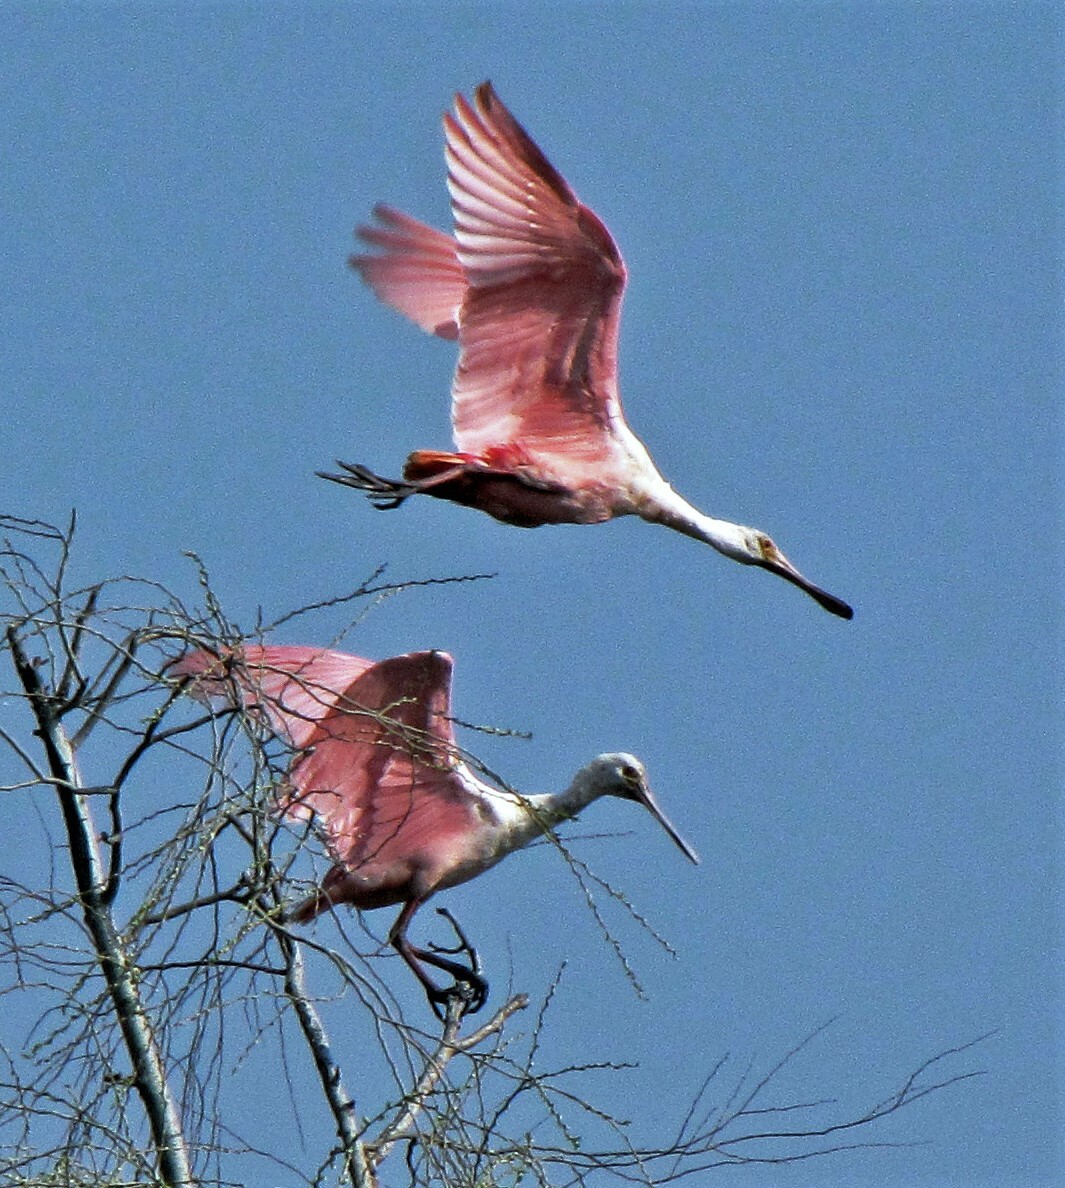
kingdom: Animalia
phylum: Chordata
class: Aves
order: Pelecaniformes
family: Threskiornithidae
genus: Platalea
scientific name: Platalea ajaja
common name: Roseate spoonbill
